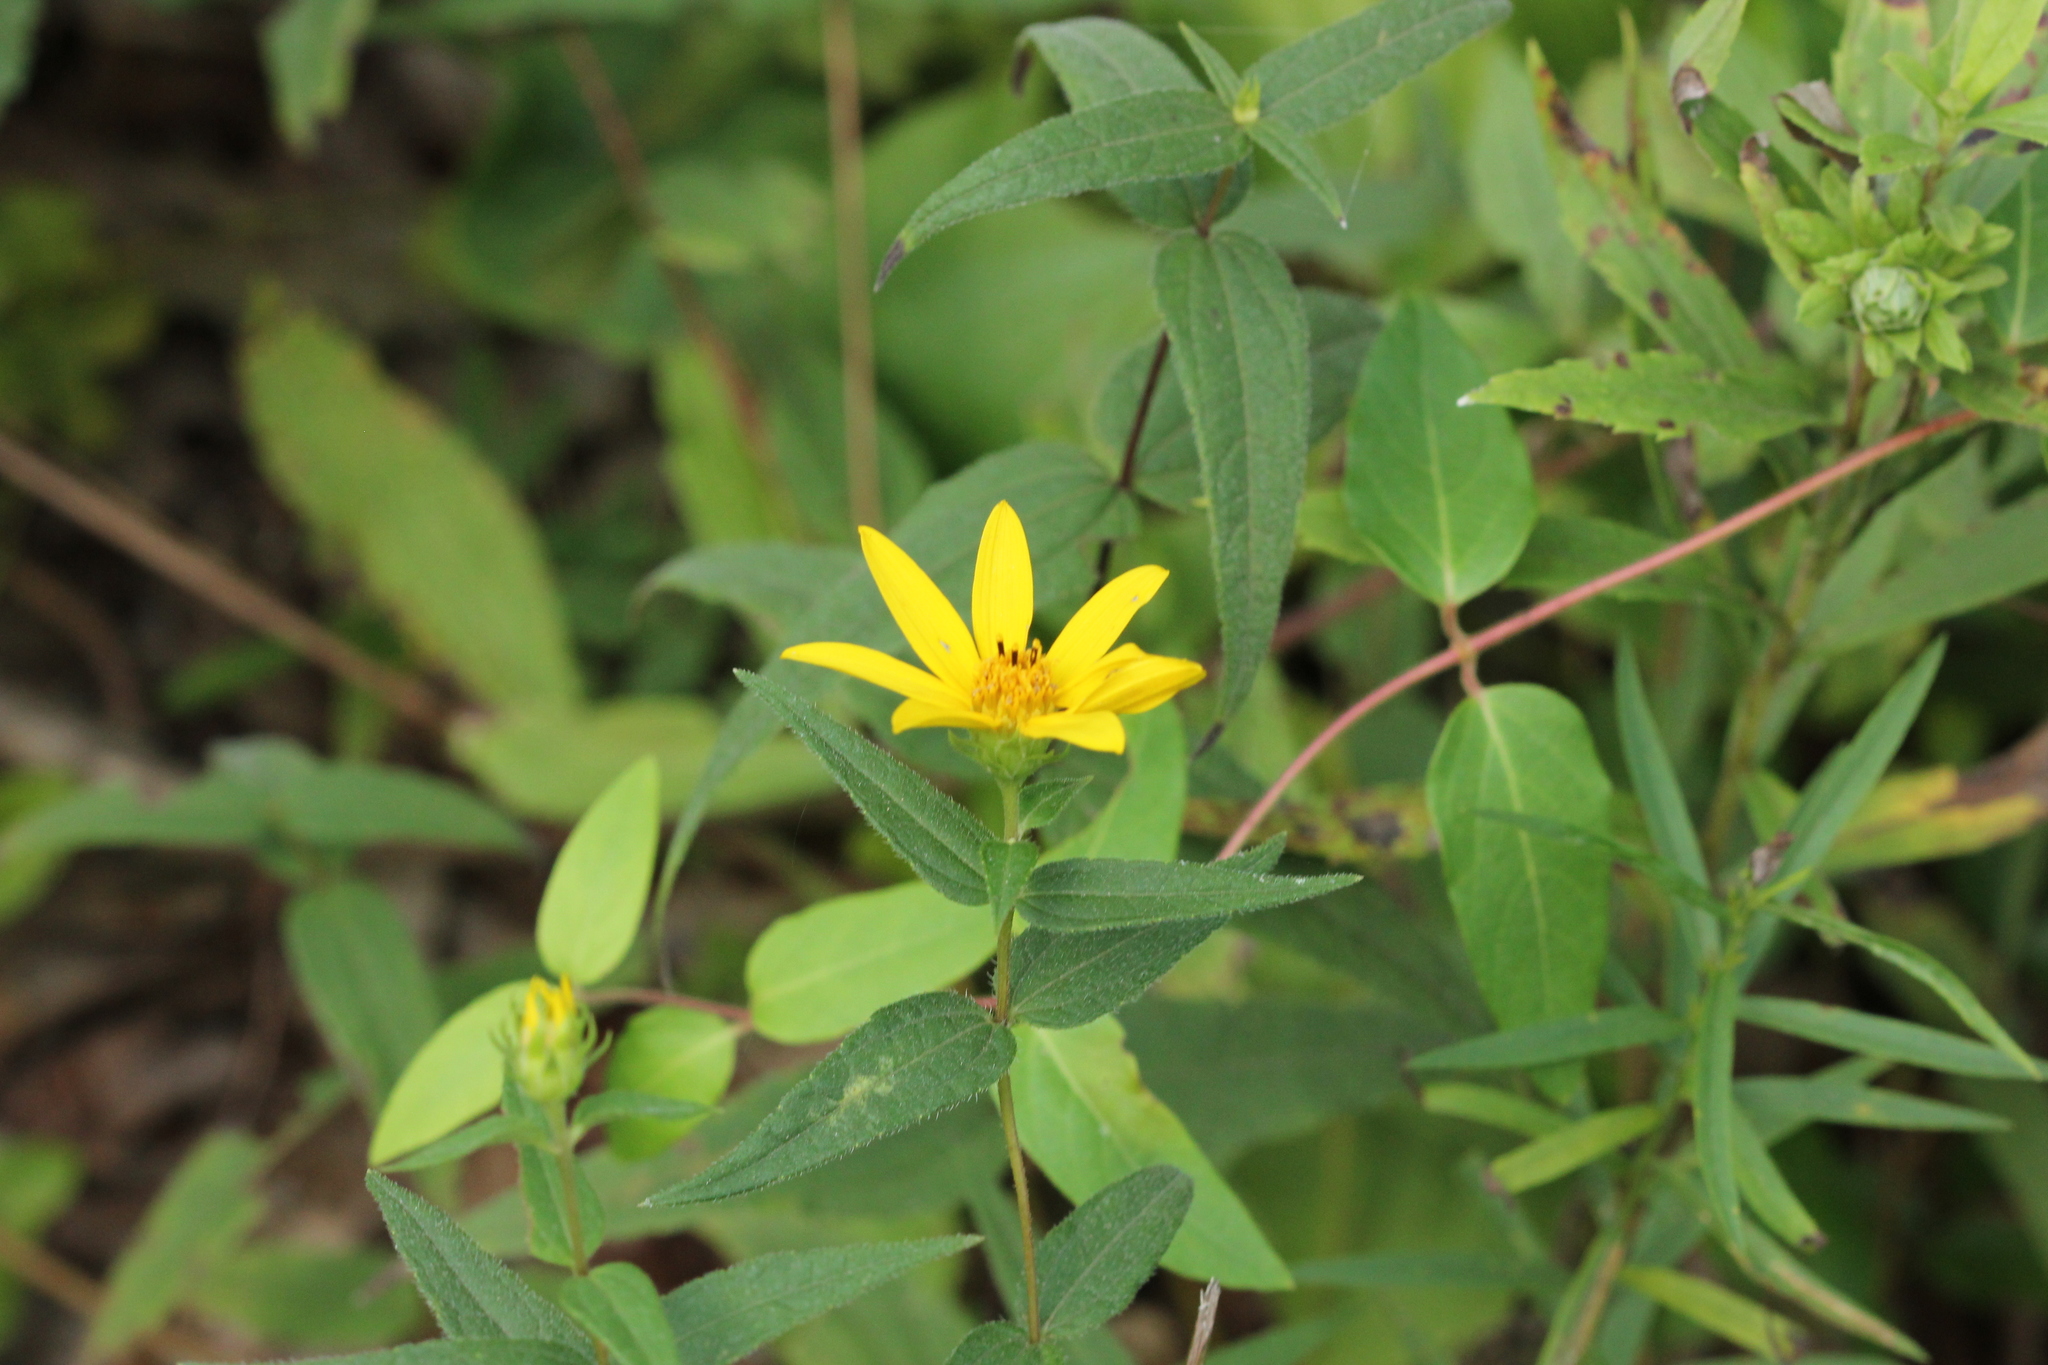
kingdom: Plantae
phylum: Tracheophyta
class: Magnoliopsida
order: Asterales
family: Asteraceae
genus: Helianthus
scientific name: Helianthus divaricatus
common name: Divergent sunflower
